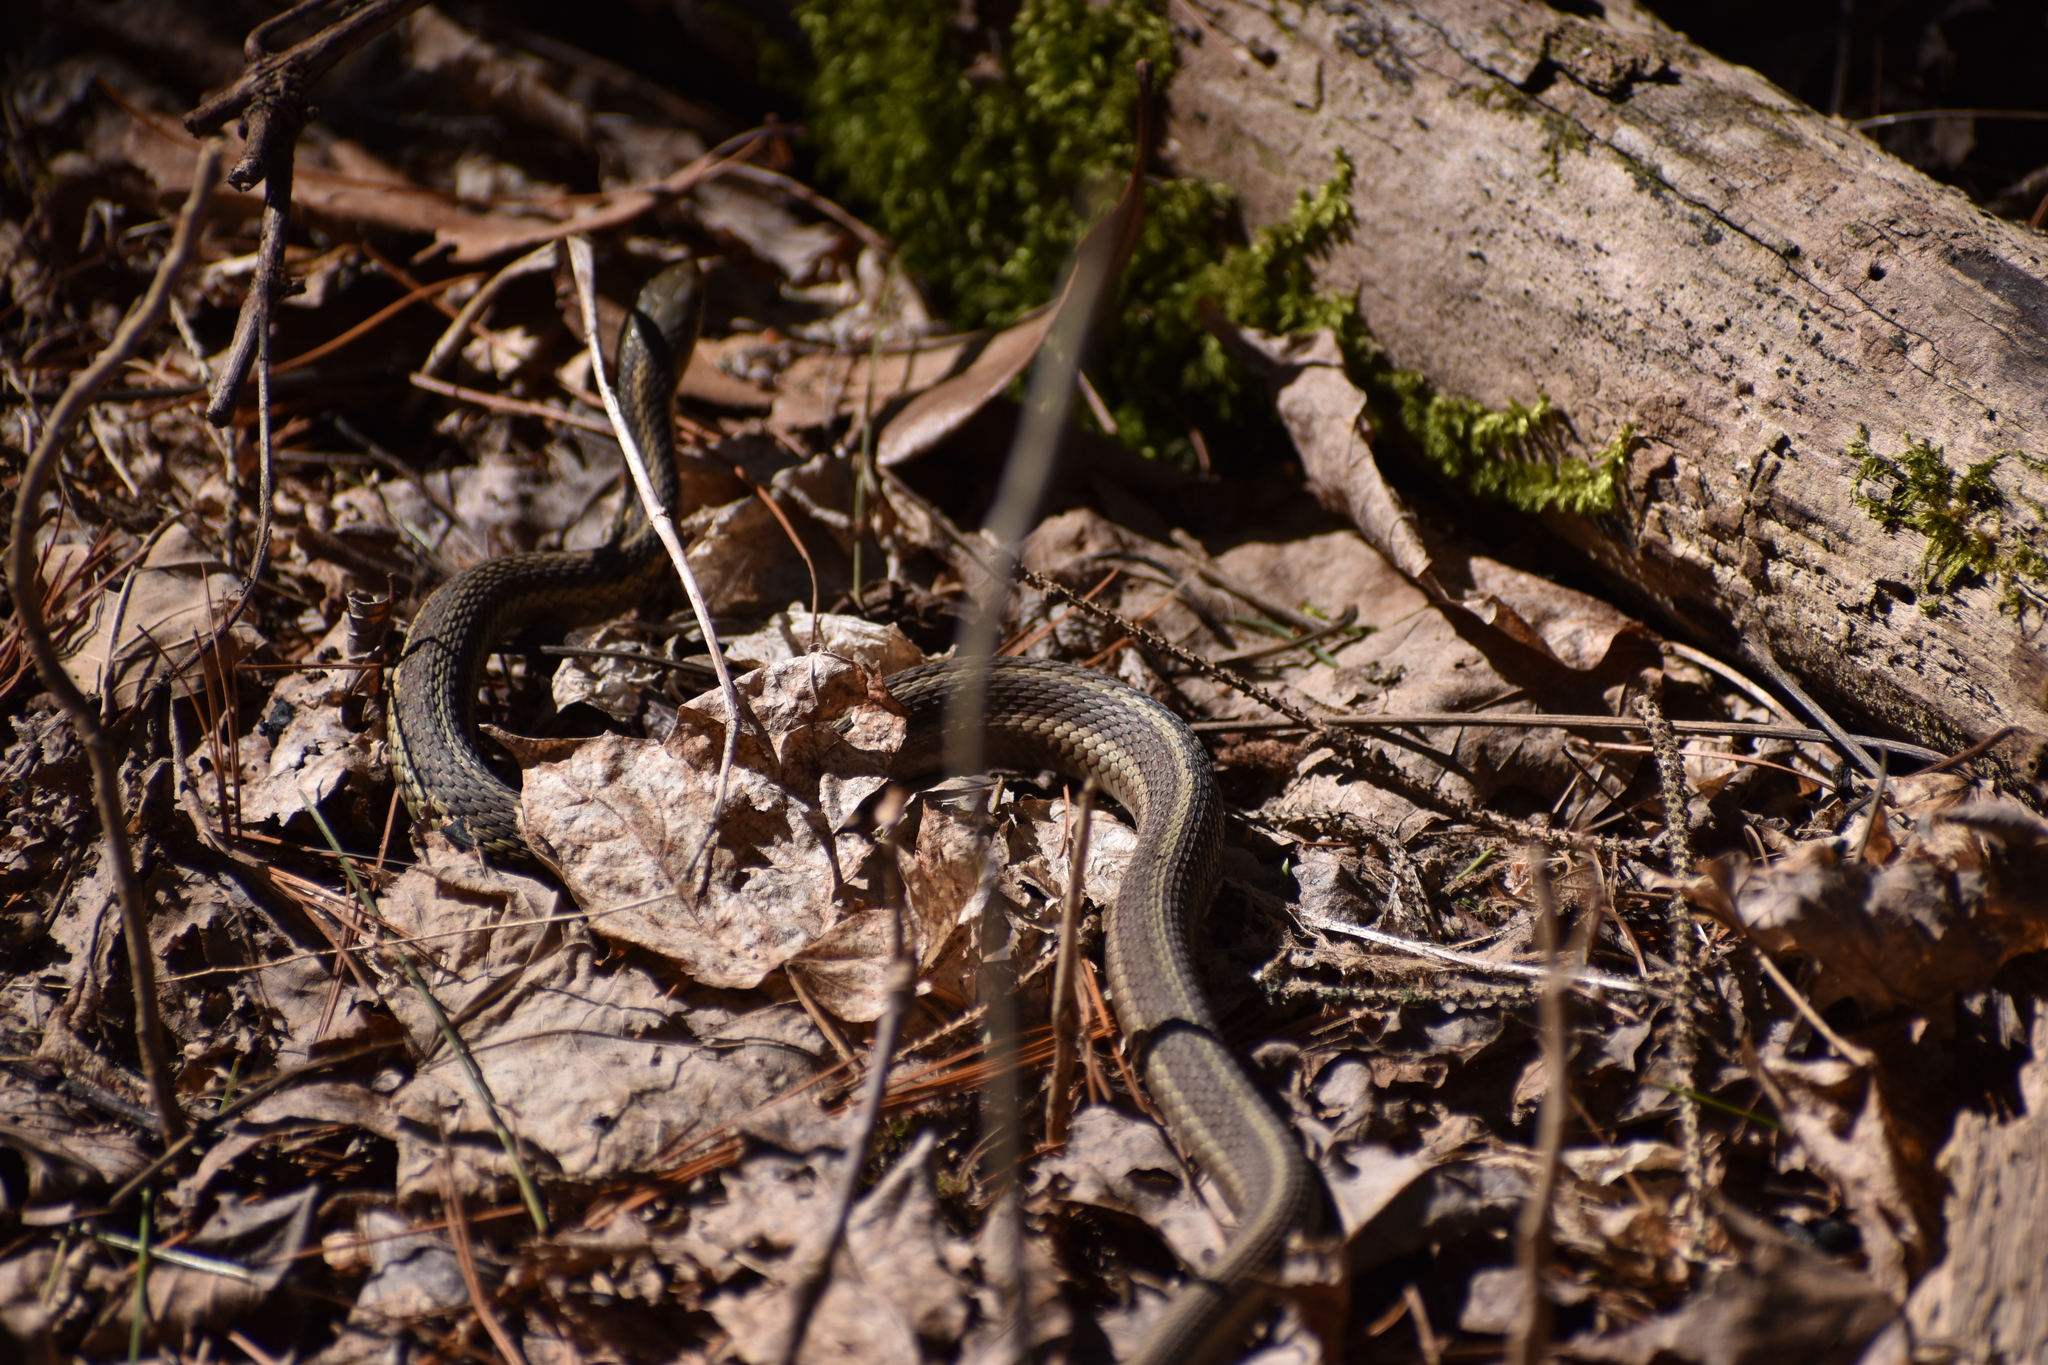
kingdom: Animalia
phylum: Chordata
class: Squamata
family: Colubridae
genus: Thamnophis
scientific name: Thamnophis sirtalis
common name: Common garter snake
